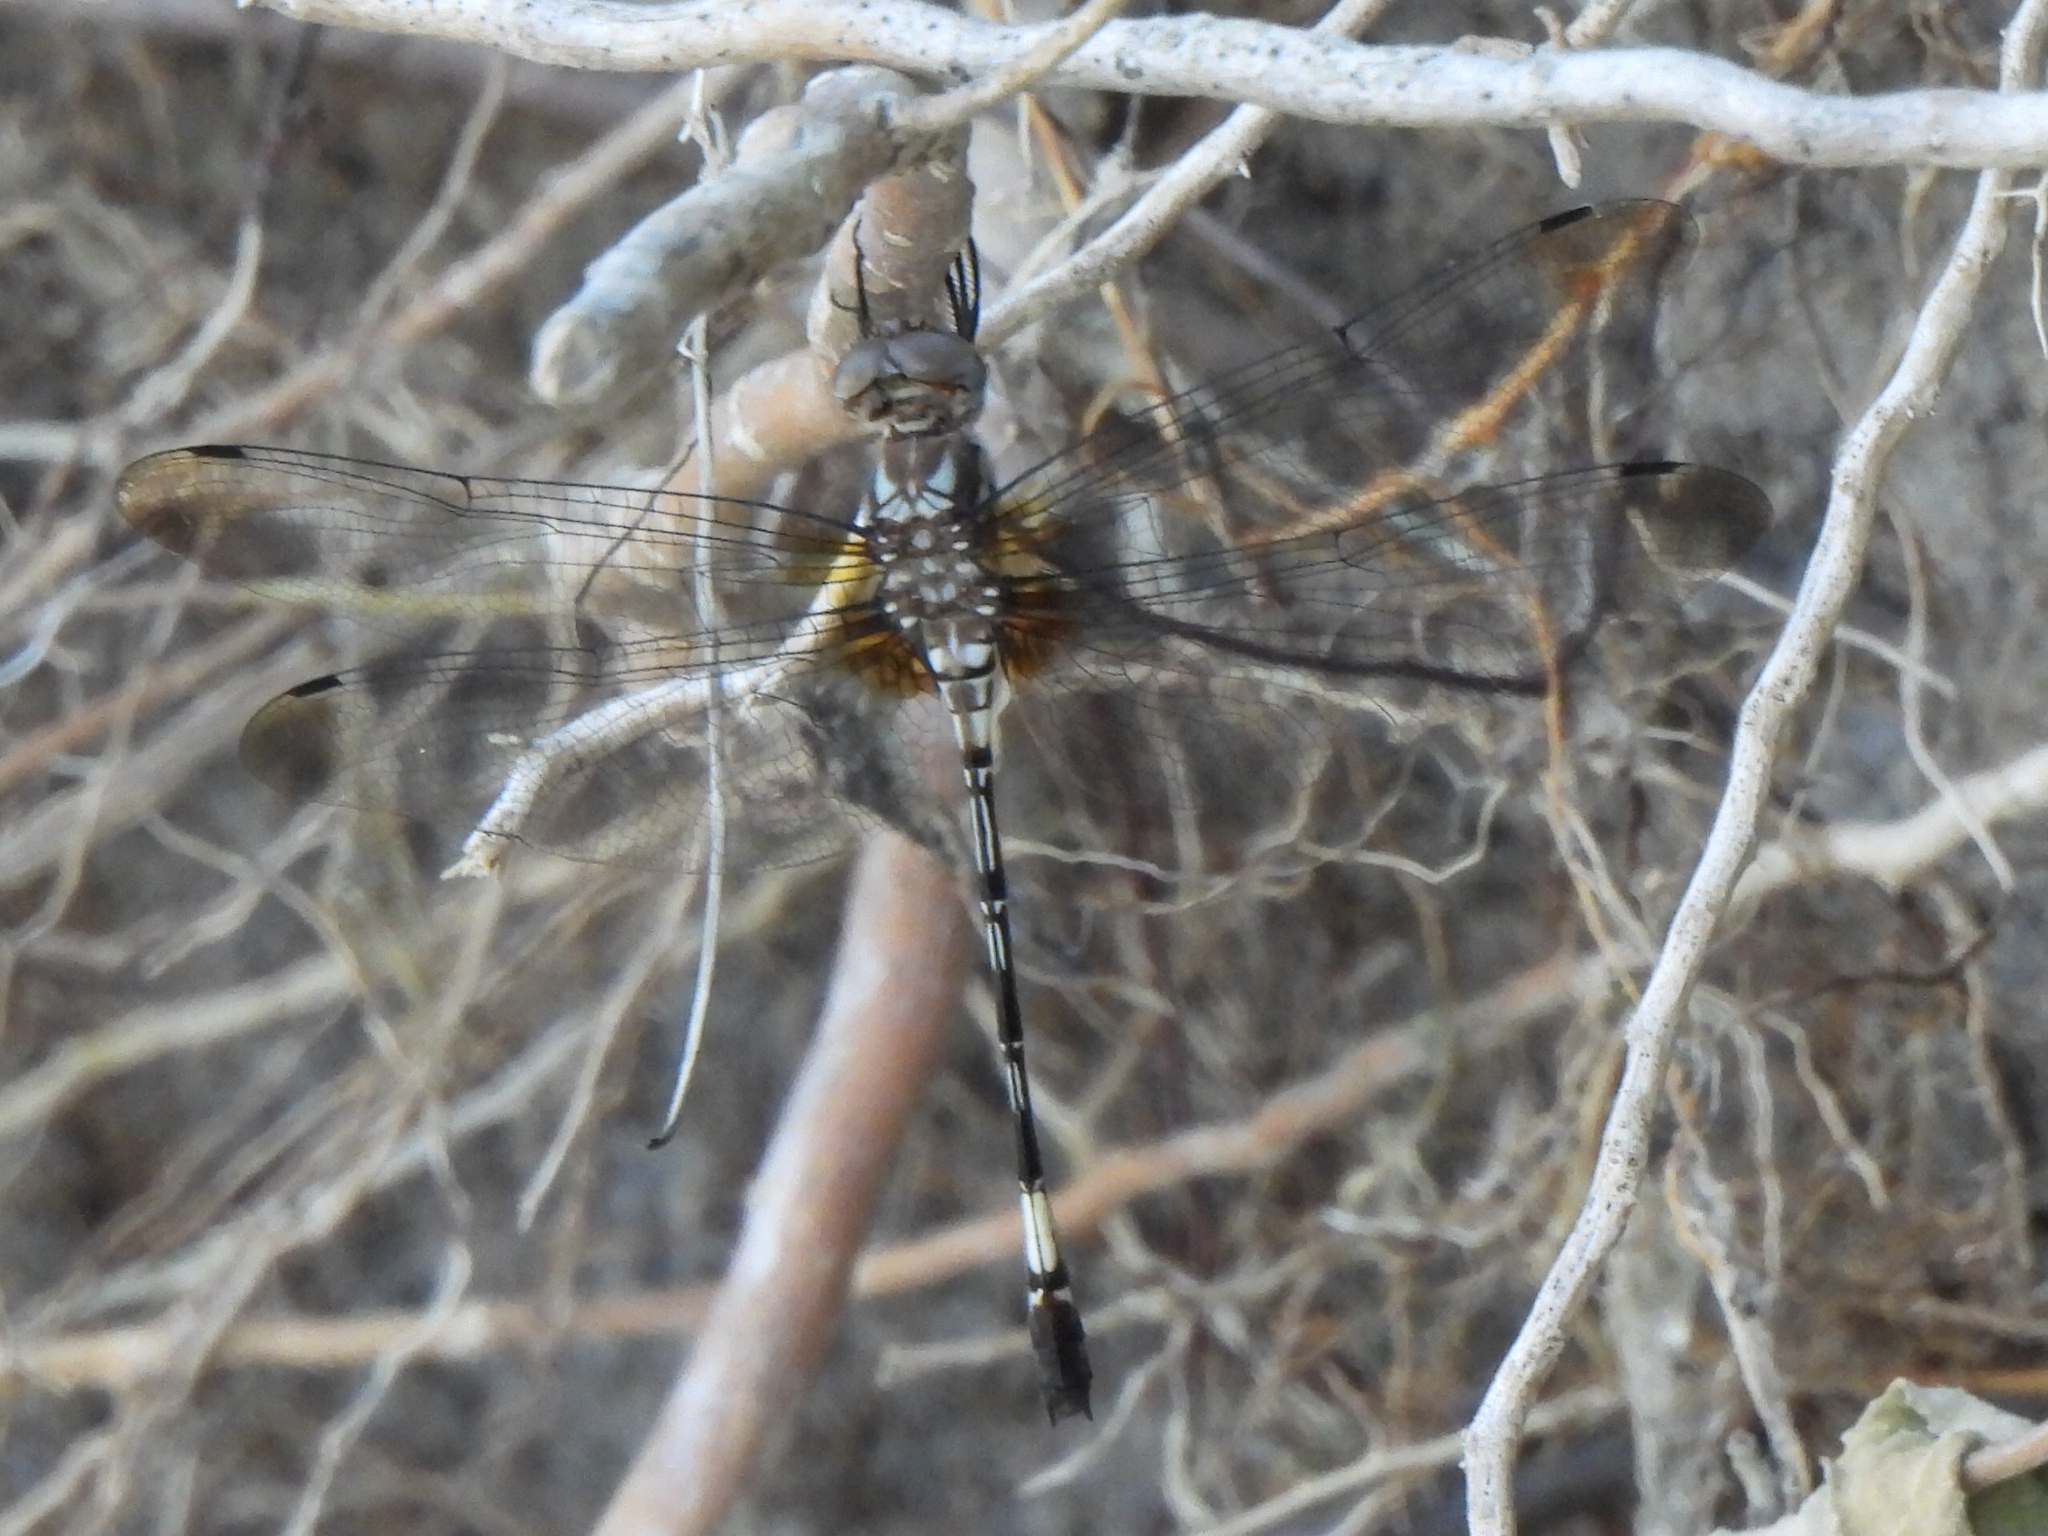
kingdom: Animalia
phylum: Arthropoda
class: Insecta
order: Odonata
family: Libellulidae
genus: Brechmorhoga
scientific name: Brechmorhoga mendax
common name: Pale-faced clubskimmer
